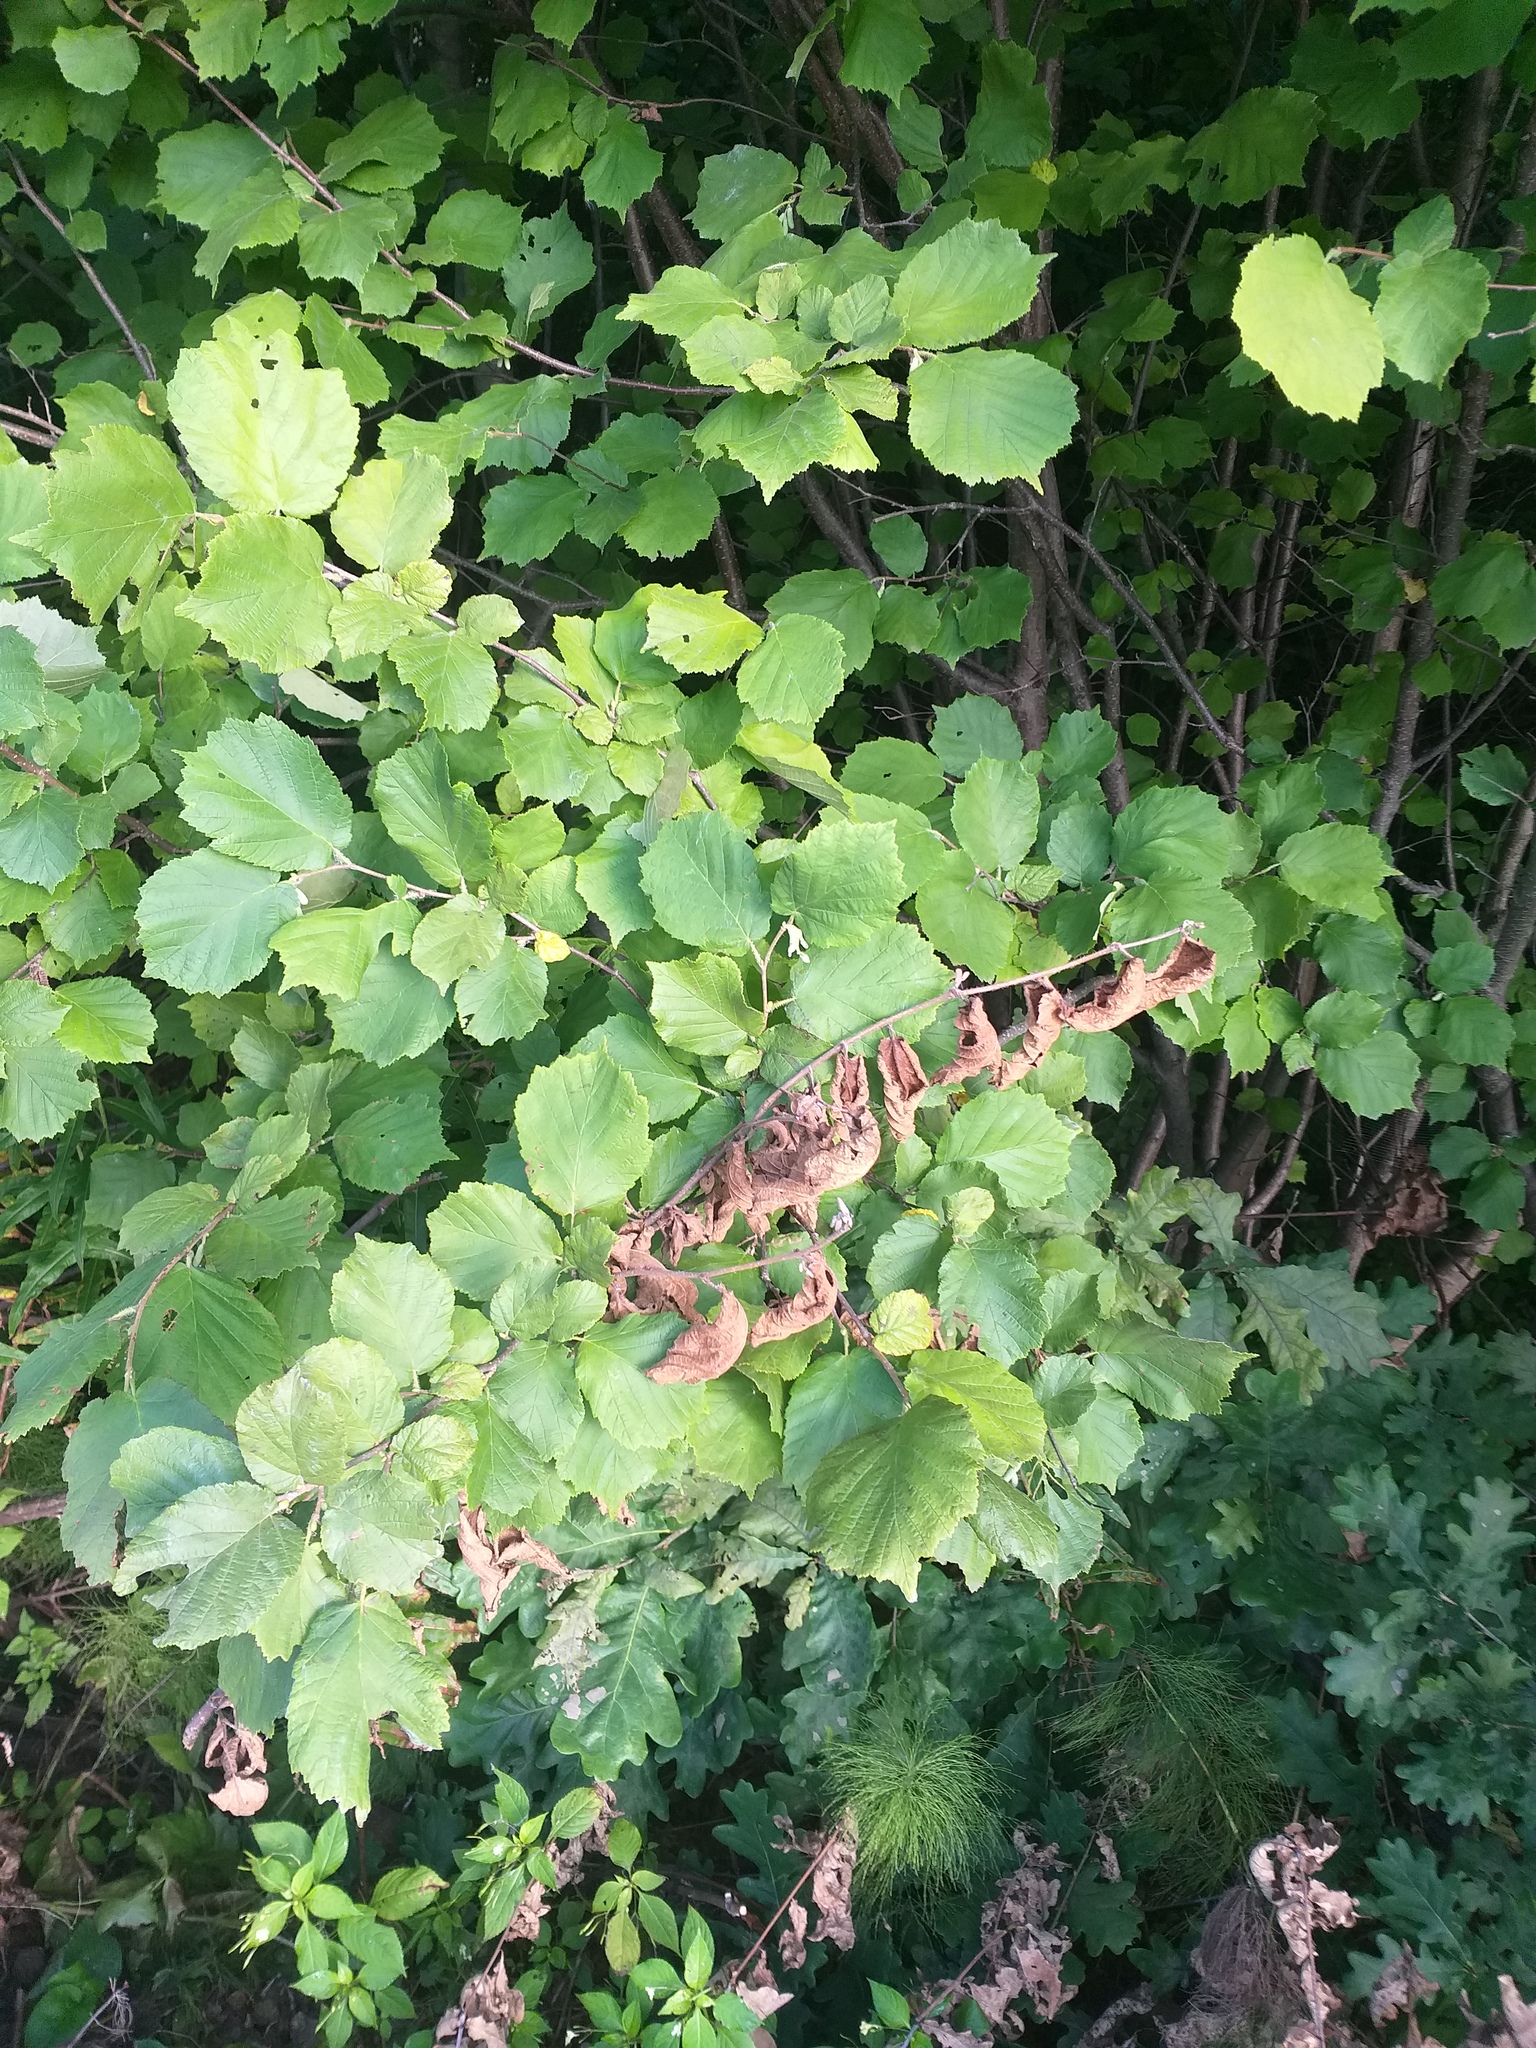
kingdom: Plantae
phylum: Tracheophyta
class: Magnoliopsida
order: Fagales
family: Betulaceae
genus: Corylus
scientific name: Corylus avellana
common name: European hazel
